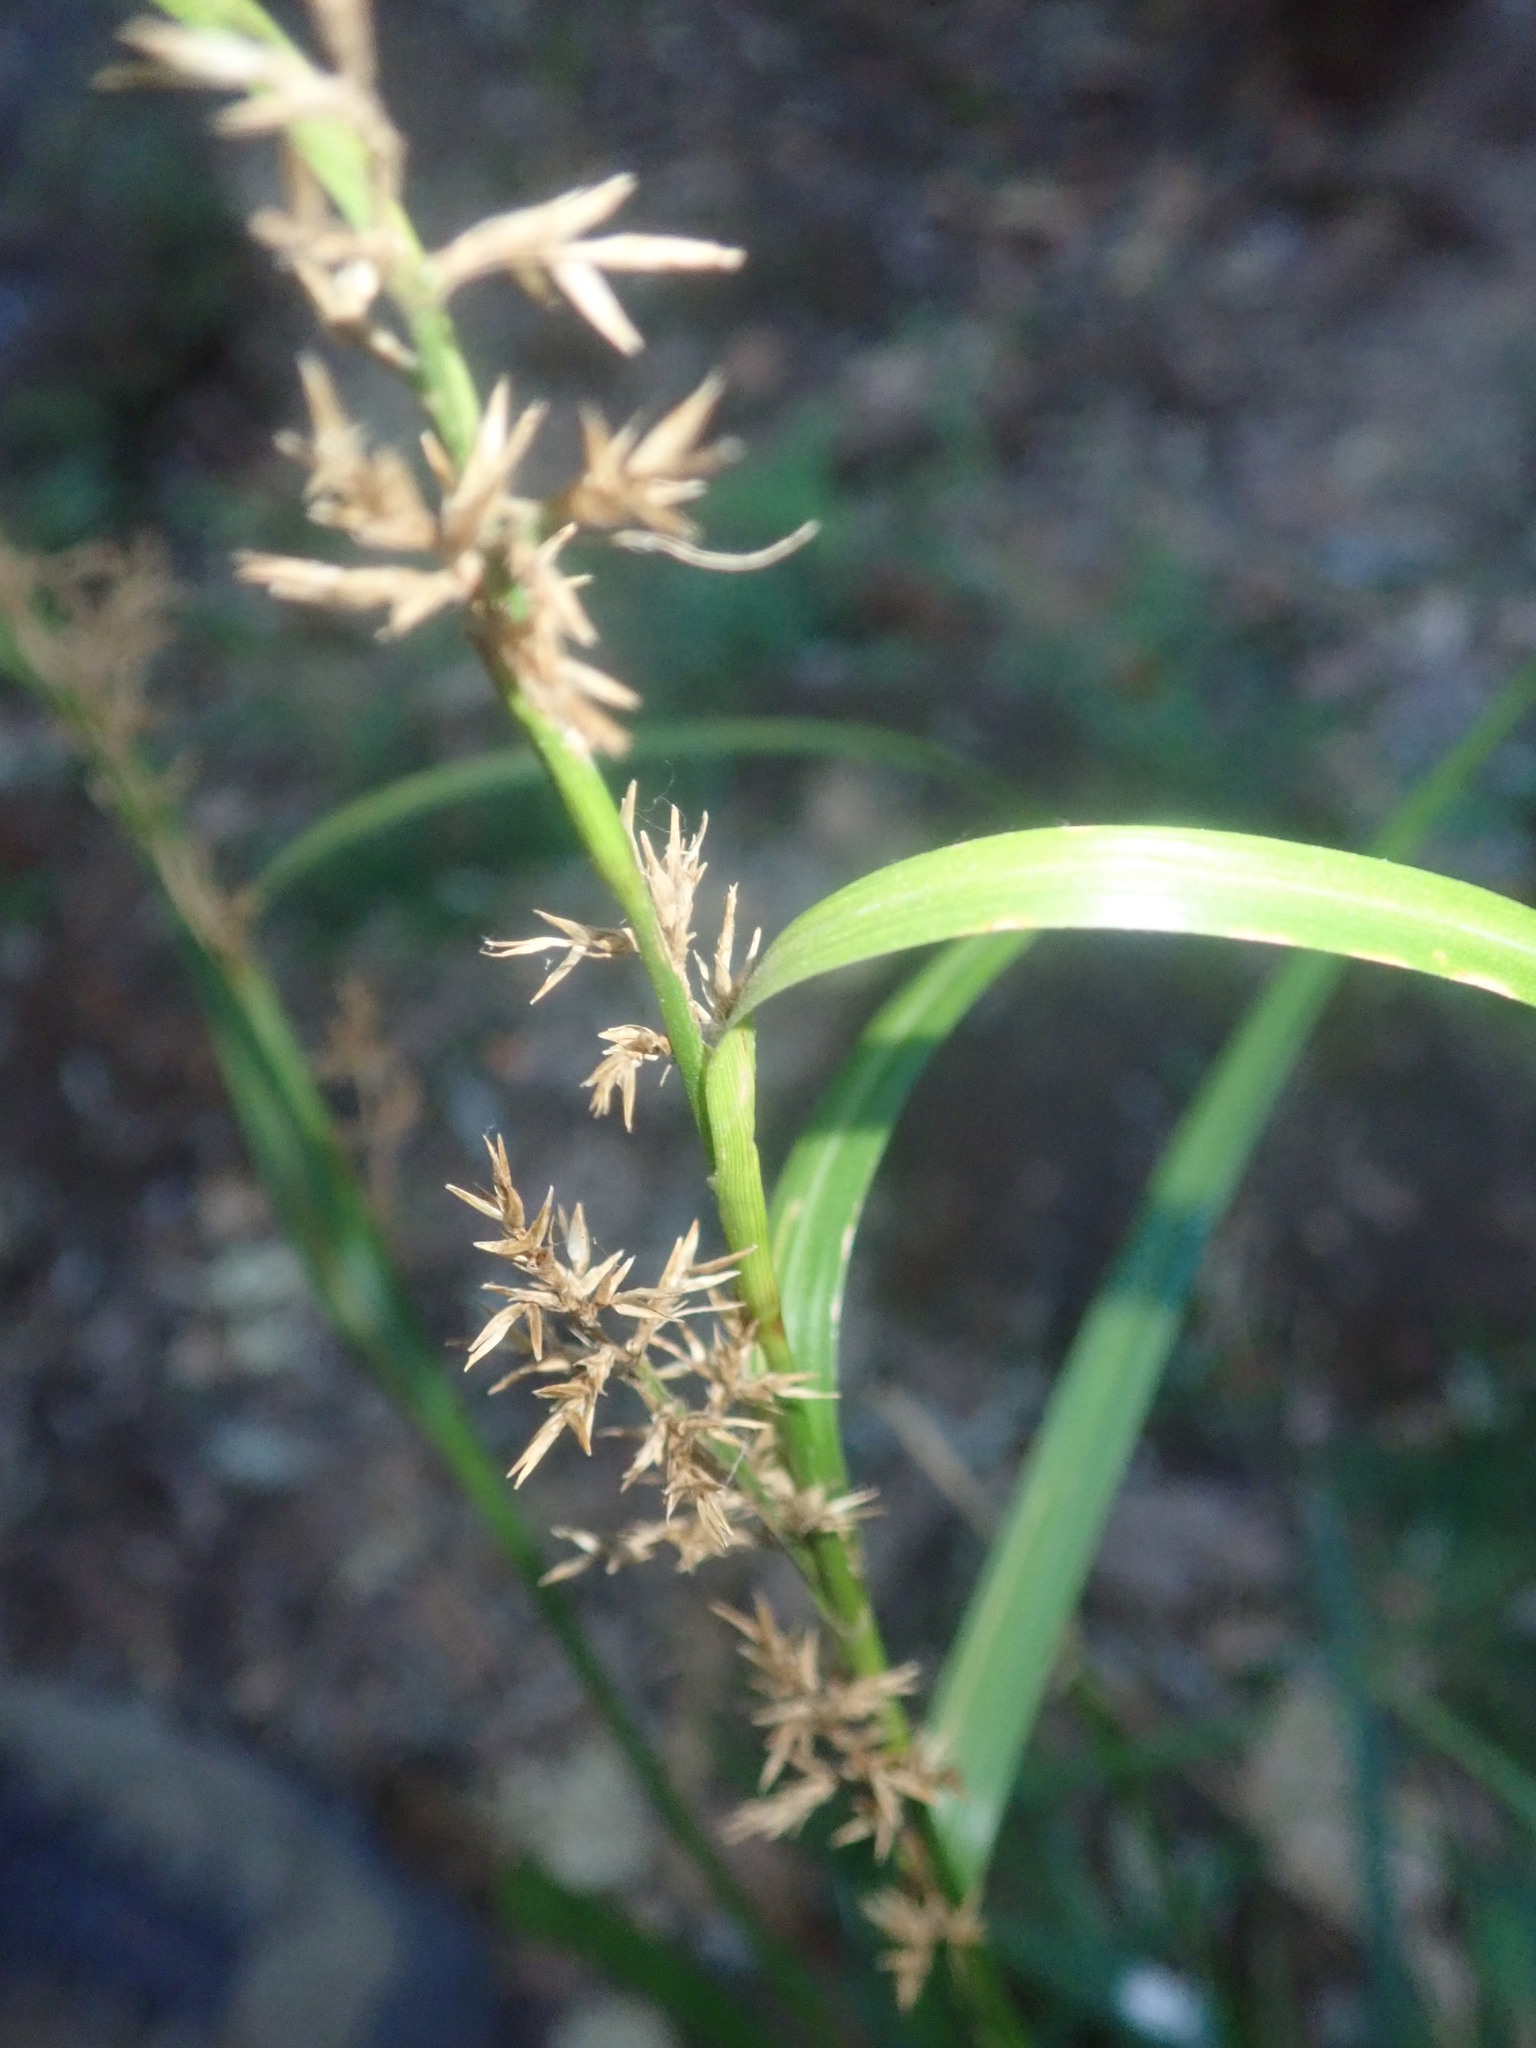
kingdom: Plantae
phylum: Tracheophyta
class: Liliopsida
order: Poales
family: Cyperaceae
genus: Carex
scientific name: Carex spicatopaniculata
